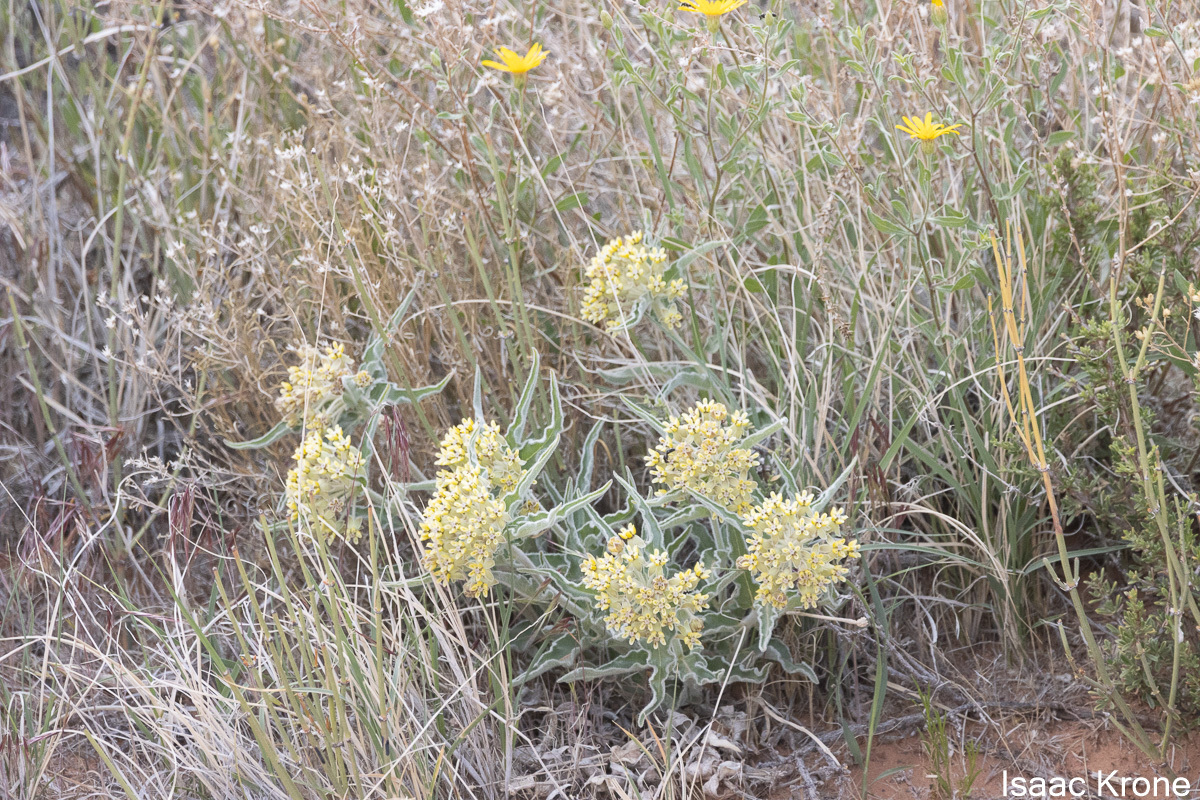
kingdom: Plantae
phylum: Tracheophyta
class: Magnoliopsida
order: Gentianales
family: Apocynaceae
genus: Asclepias
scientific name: Asclepias involucrata
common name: Dwarf milkweed
